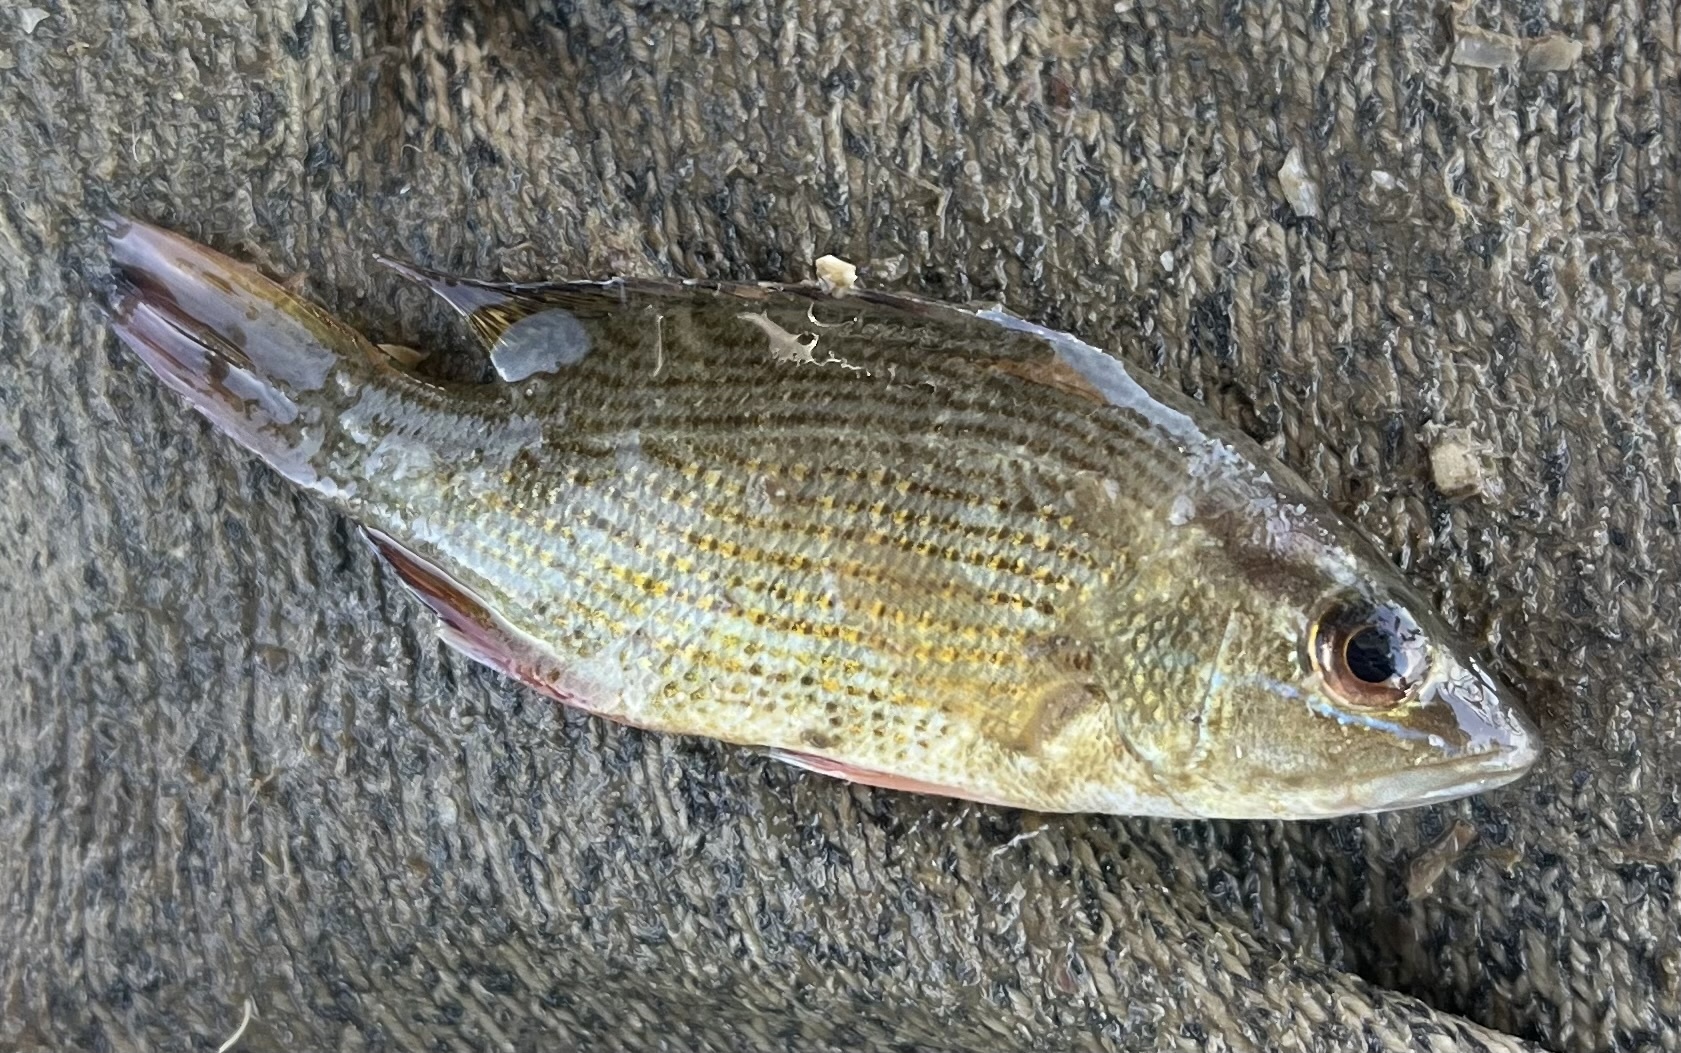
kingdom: Animalia
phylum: Chordata
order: Perciformes
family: Lutjanidae
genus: Lutjanus
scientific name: Lutjanus griseus
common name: Gray snapper
